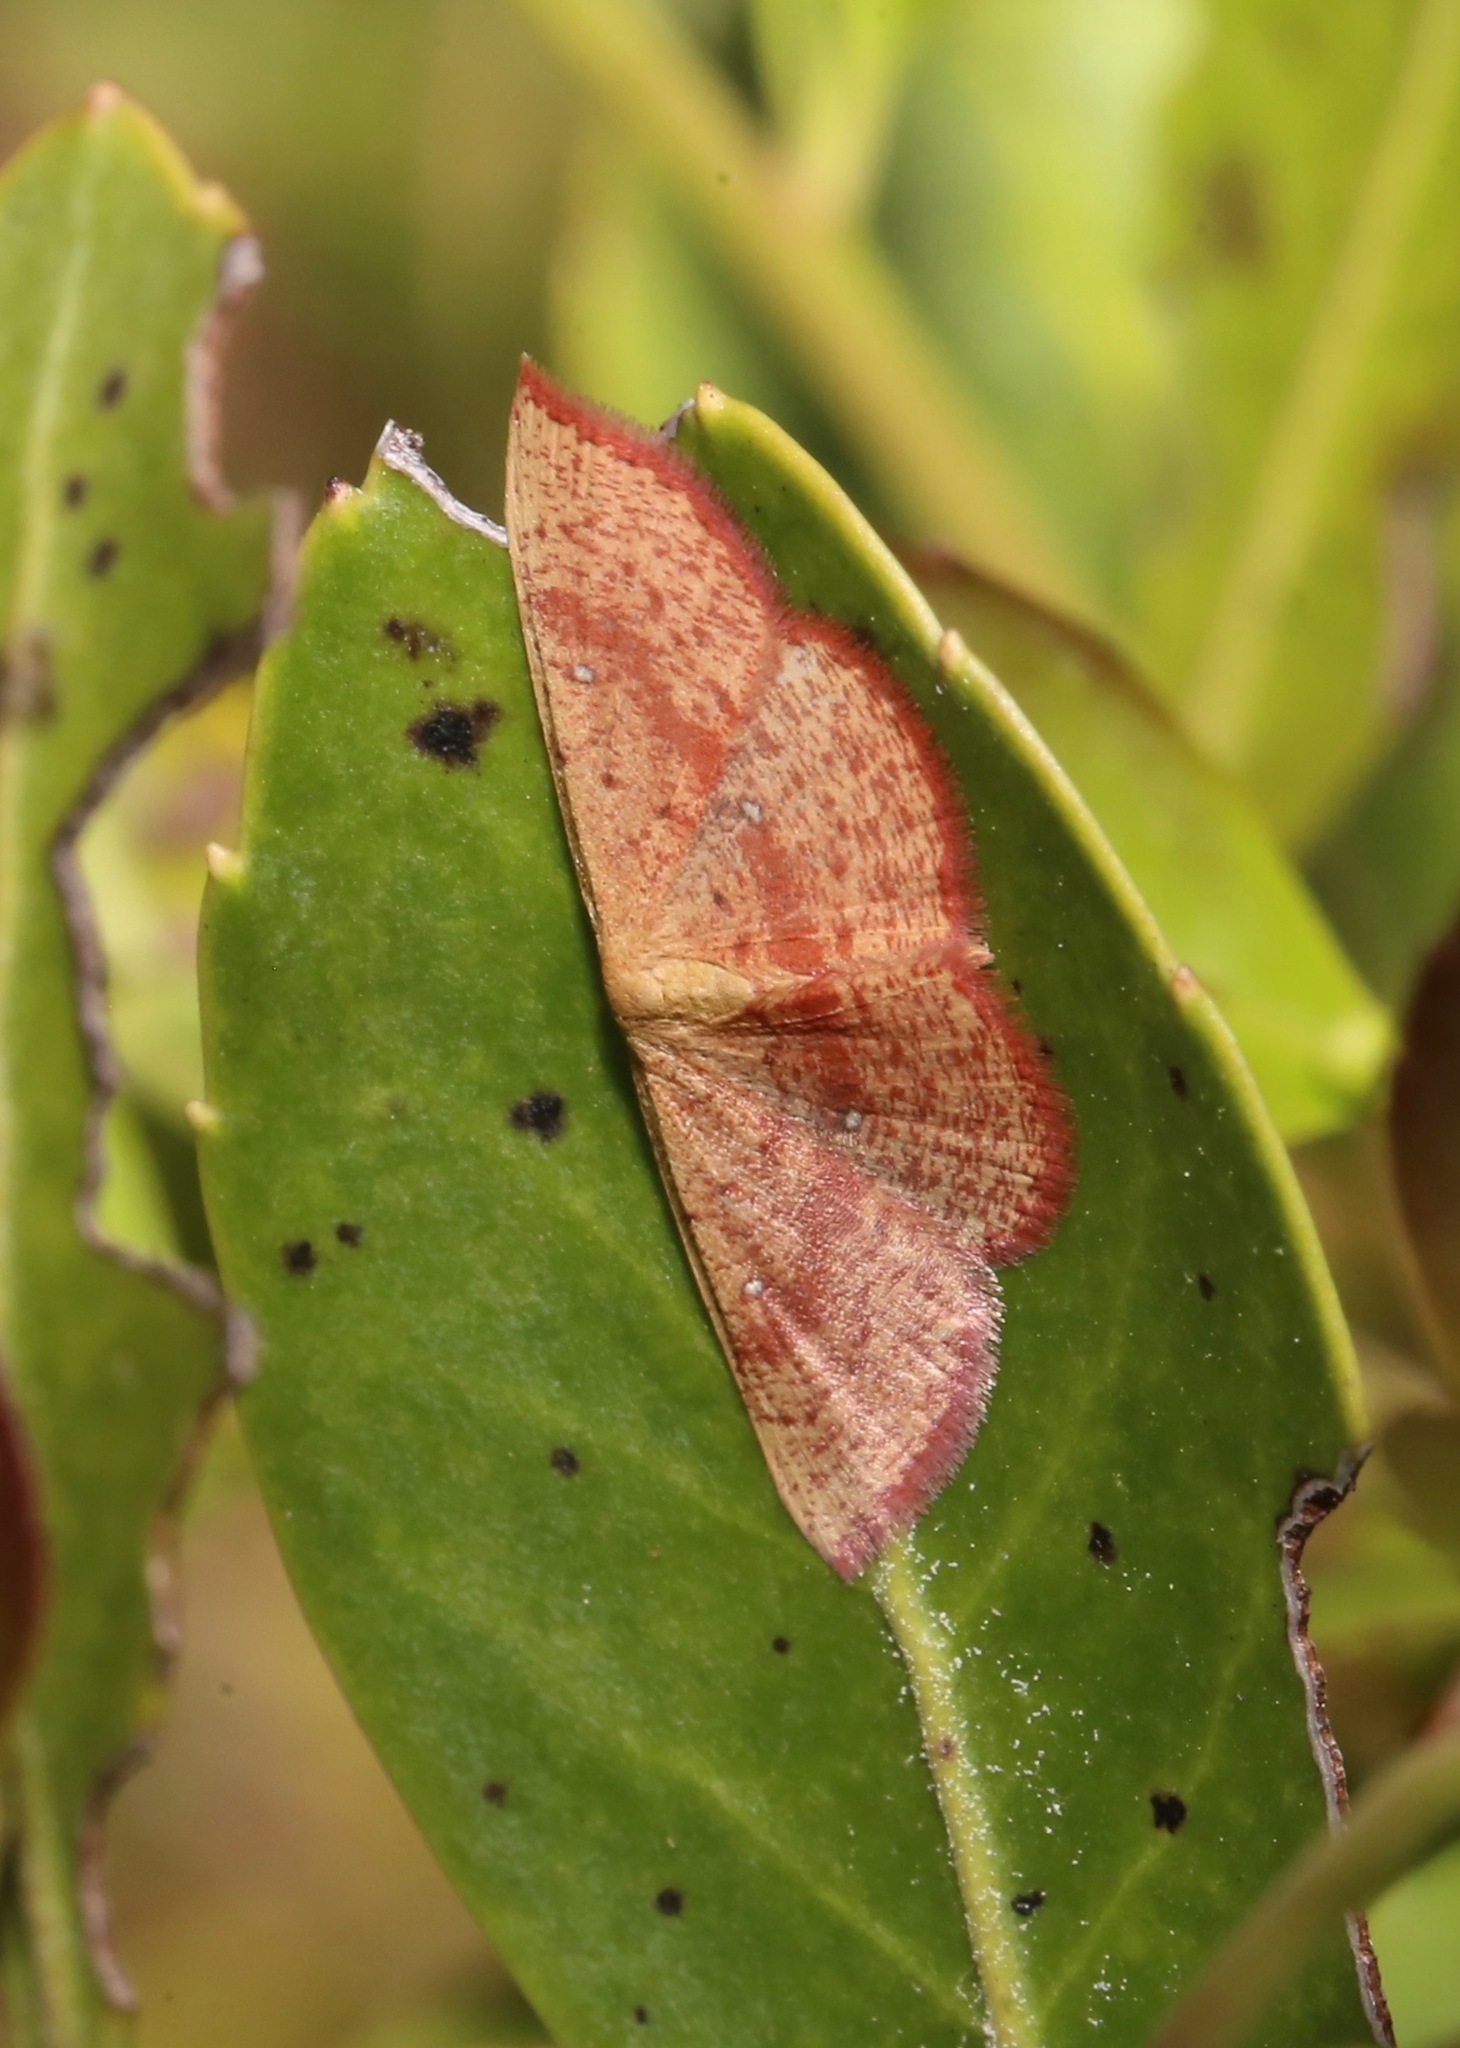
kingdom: Animalia
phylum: Arthropoda
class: Insecta
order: Lepidoptera
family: Geometridae
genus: Cyclophora
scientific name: Cyclophora culicaria
